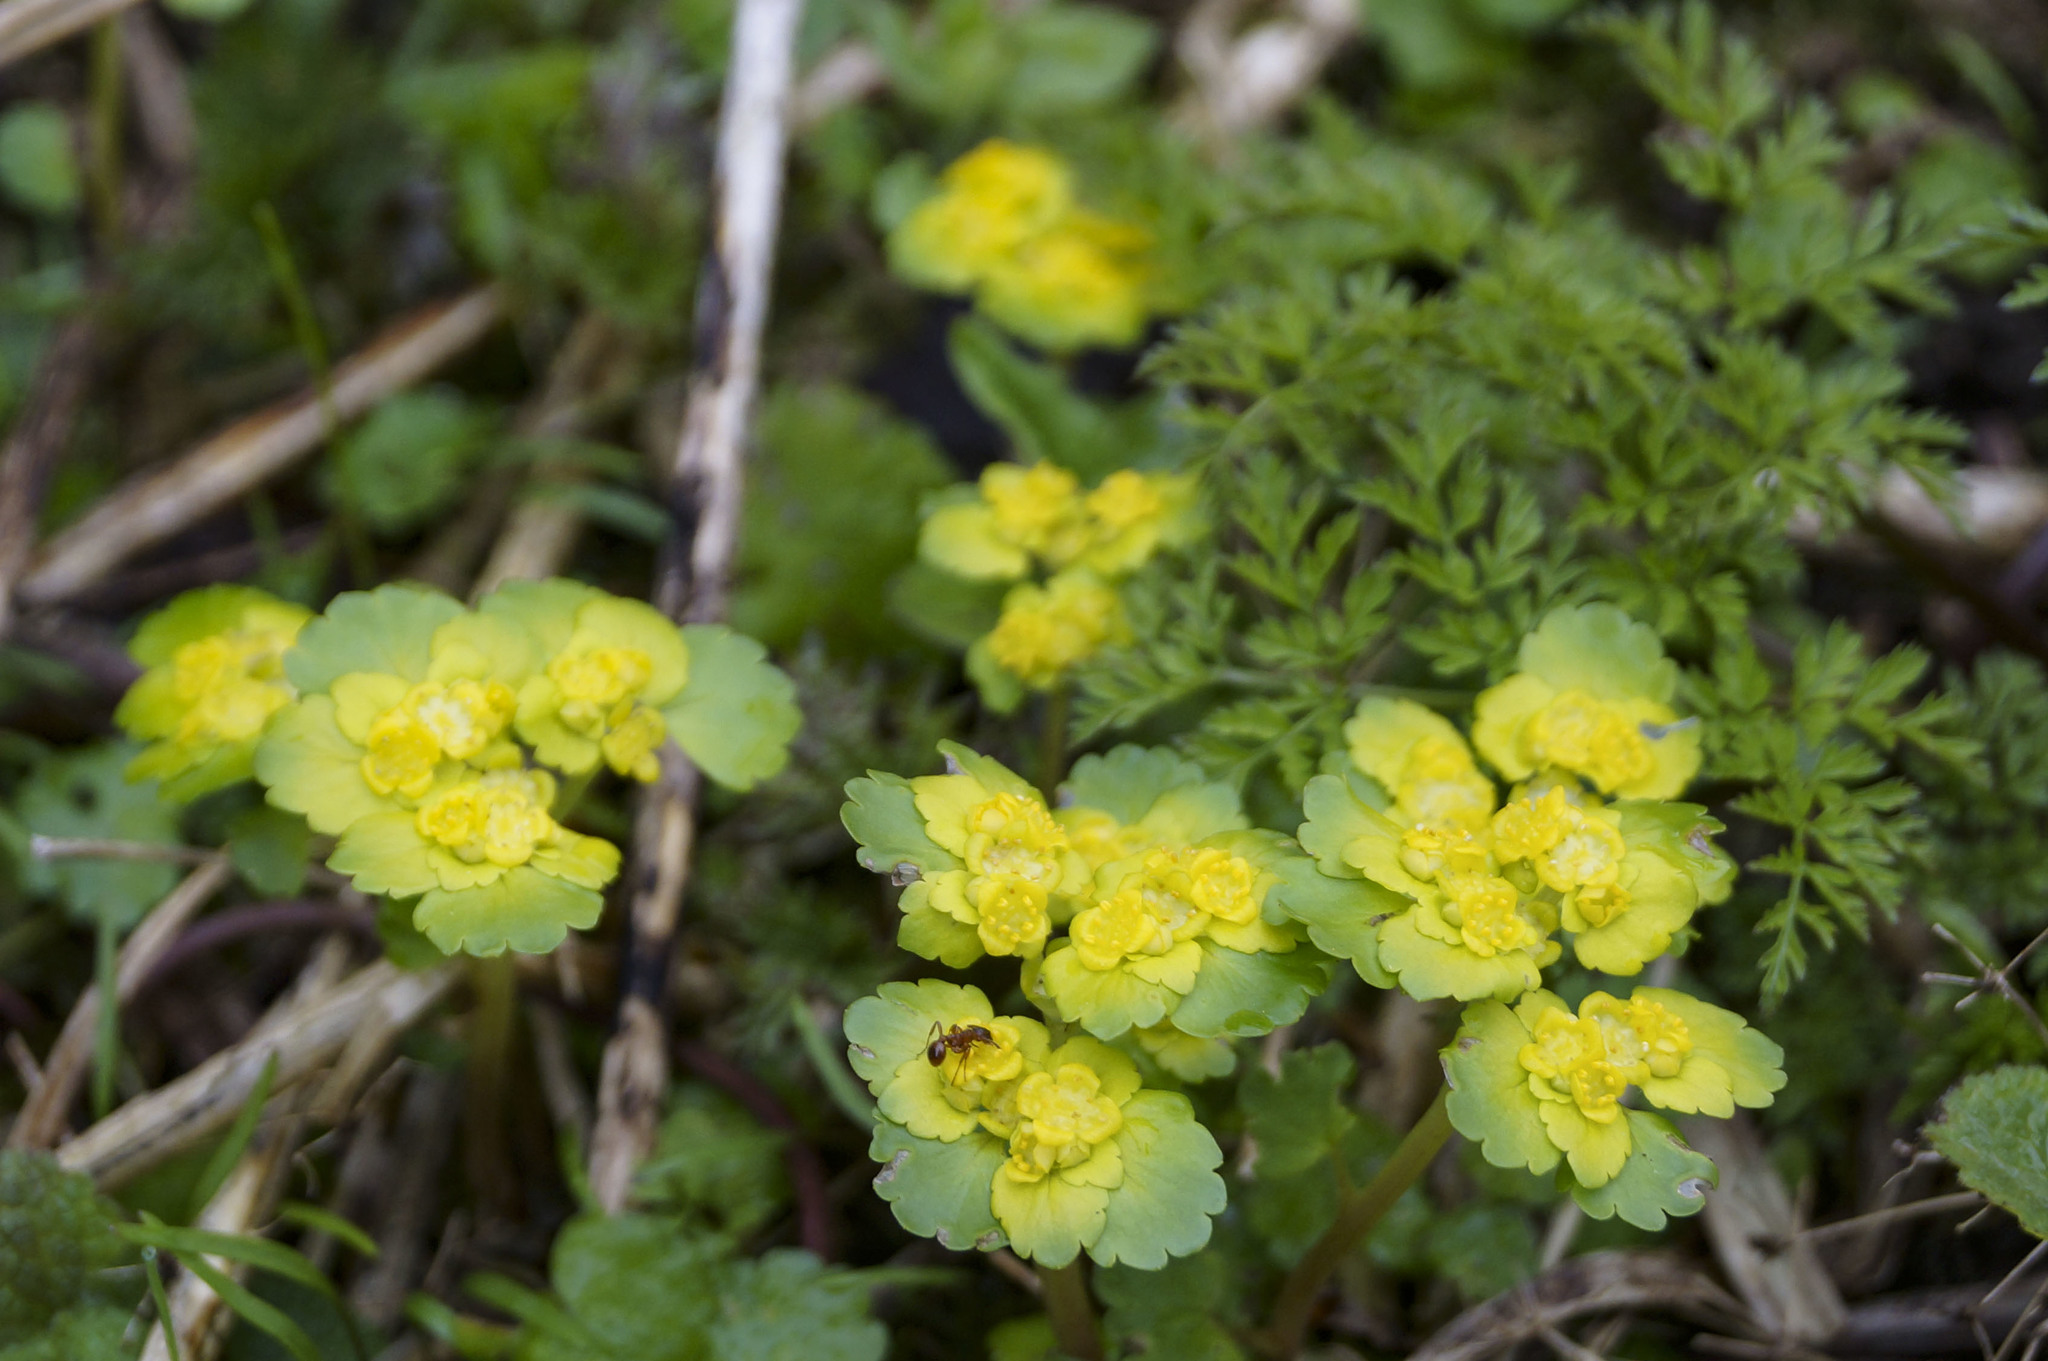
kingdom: Plantae
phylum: Tracheophyta
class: Magnoliopsida
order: Saxifragales
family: Saxifragaceae
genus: Chrysosplenium
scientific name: Chrysosplenium alternifolium
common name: Alternate-leaved golden-saxifrage
